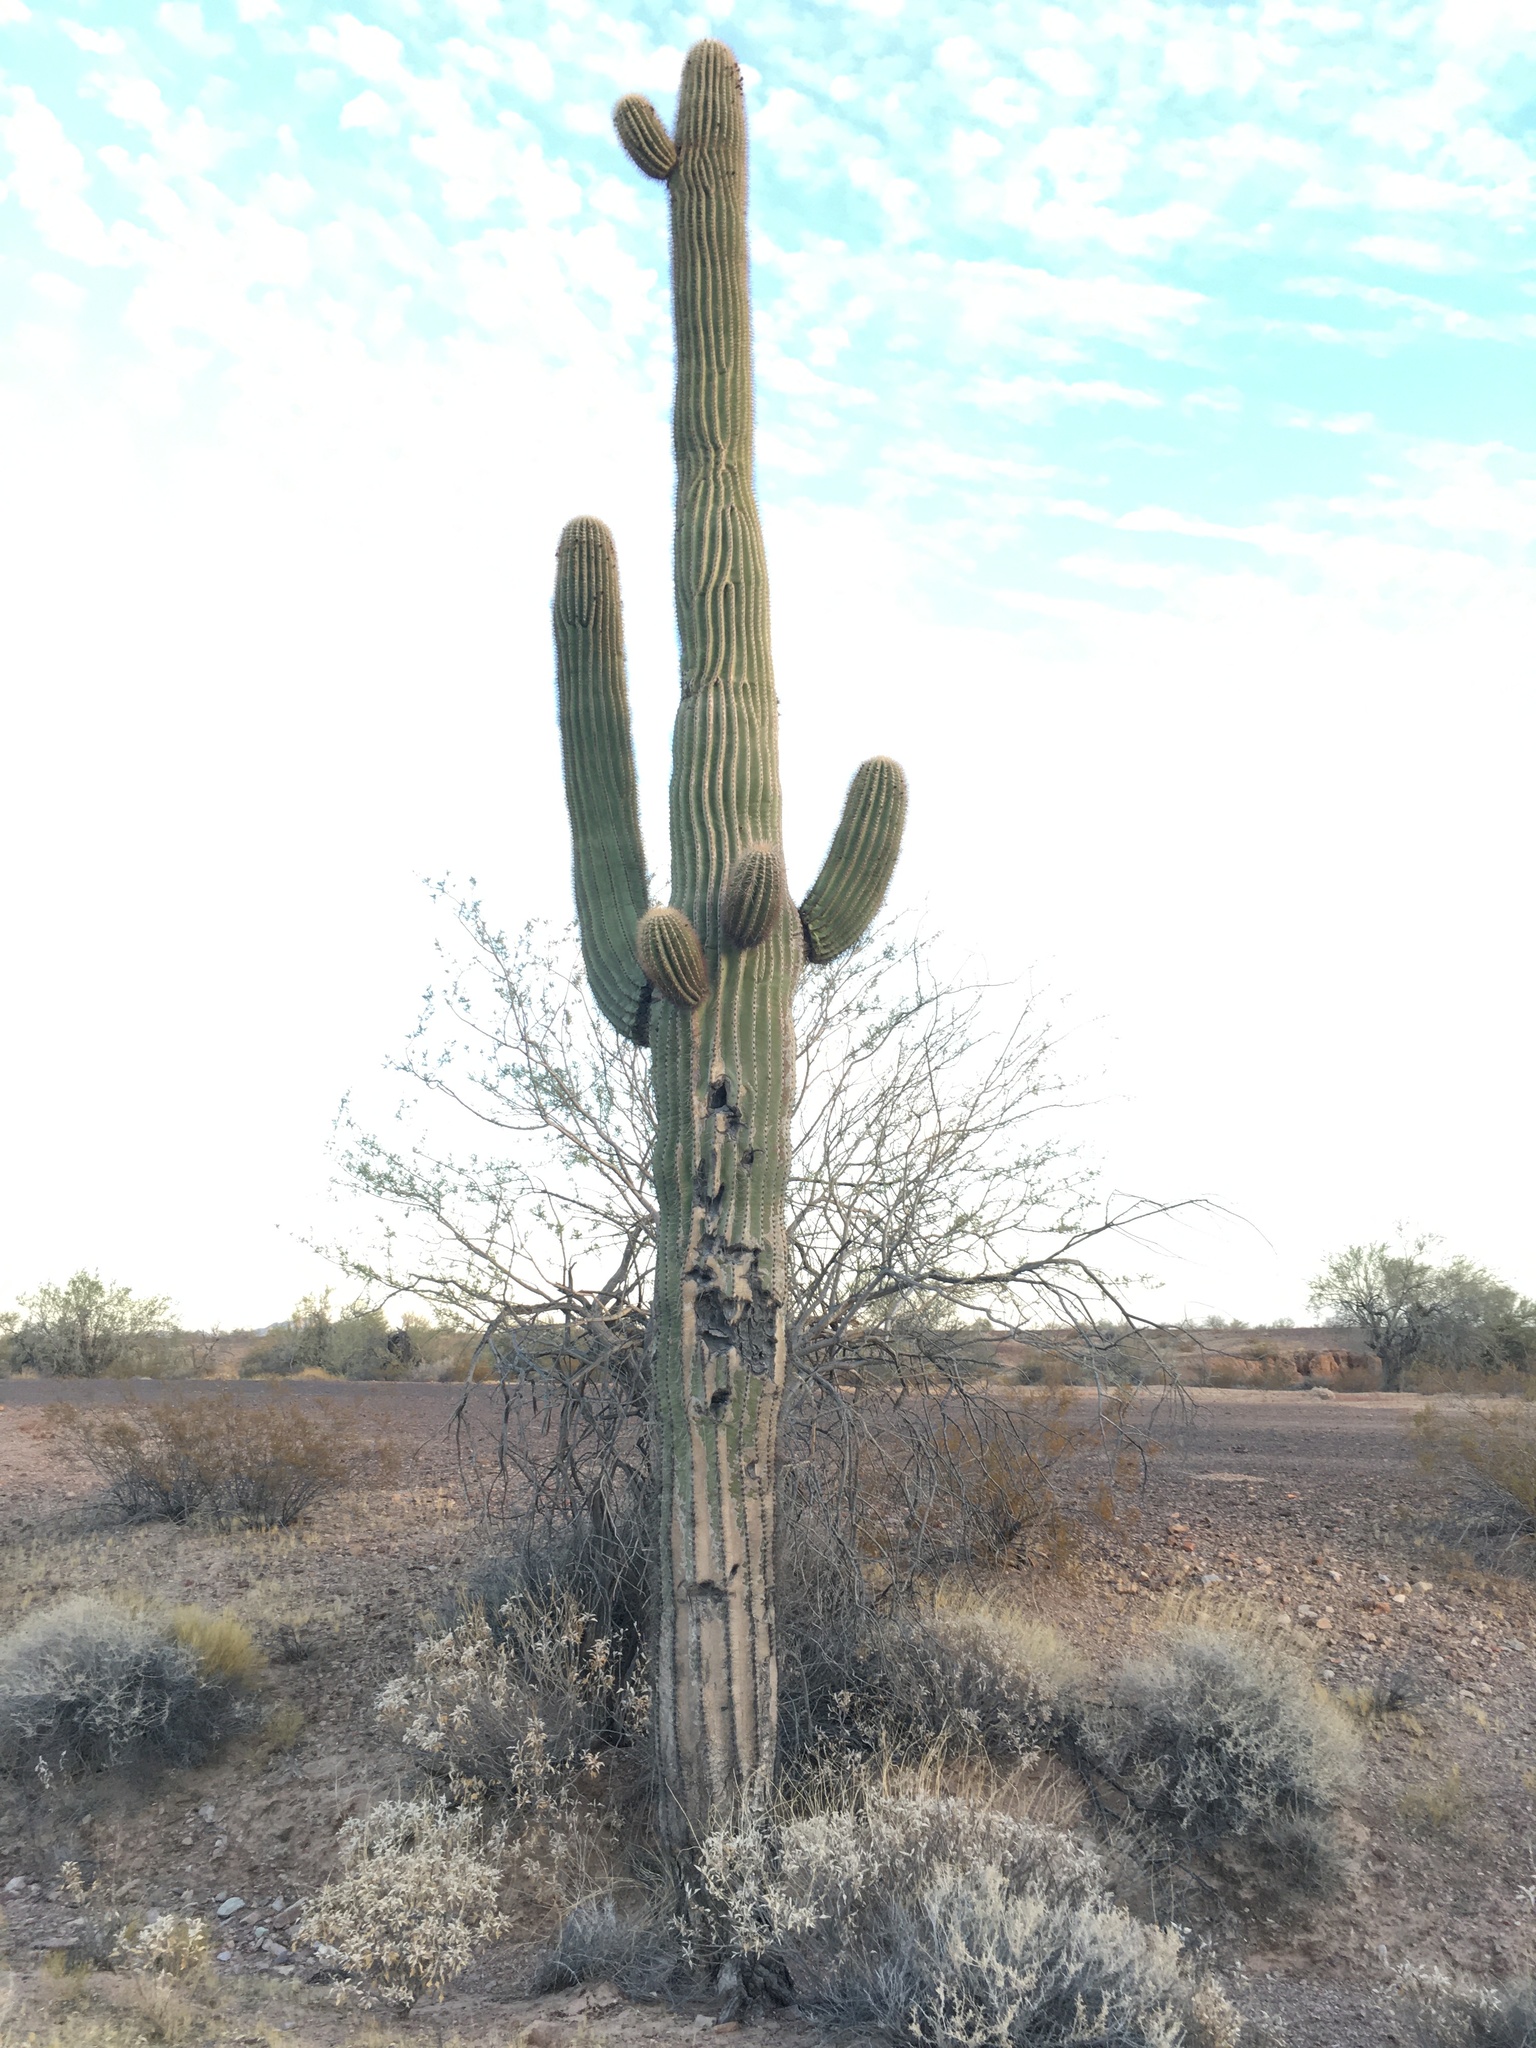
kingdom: Plantae
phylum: Tracheophyta
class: Magnoliopsida
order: Caryophyllales
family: Cactaceae
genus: Carnegiea
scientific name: Carnegiea gigantea
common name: Saguaro
